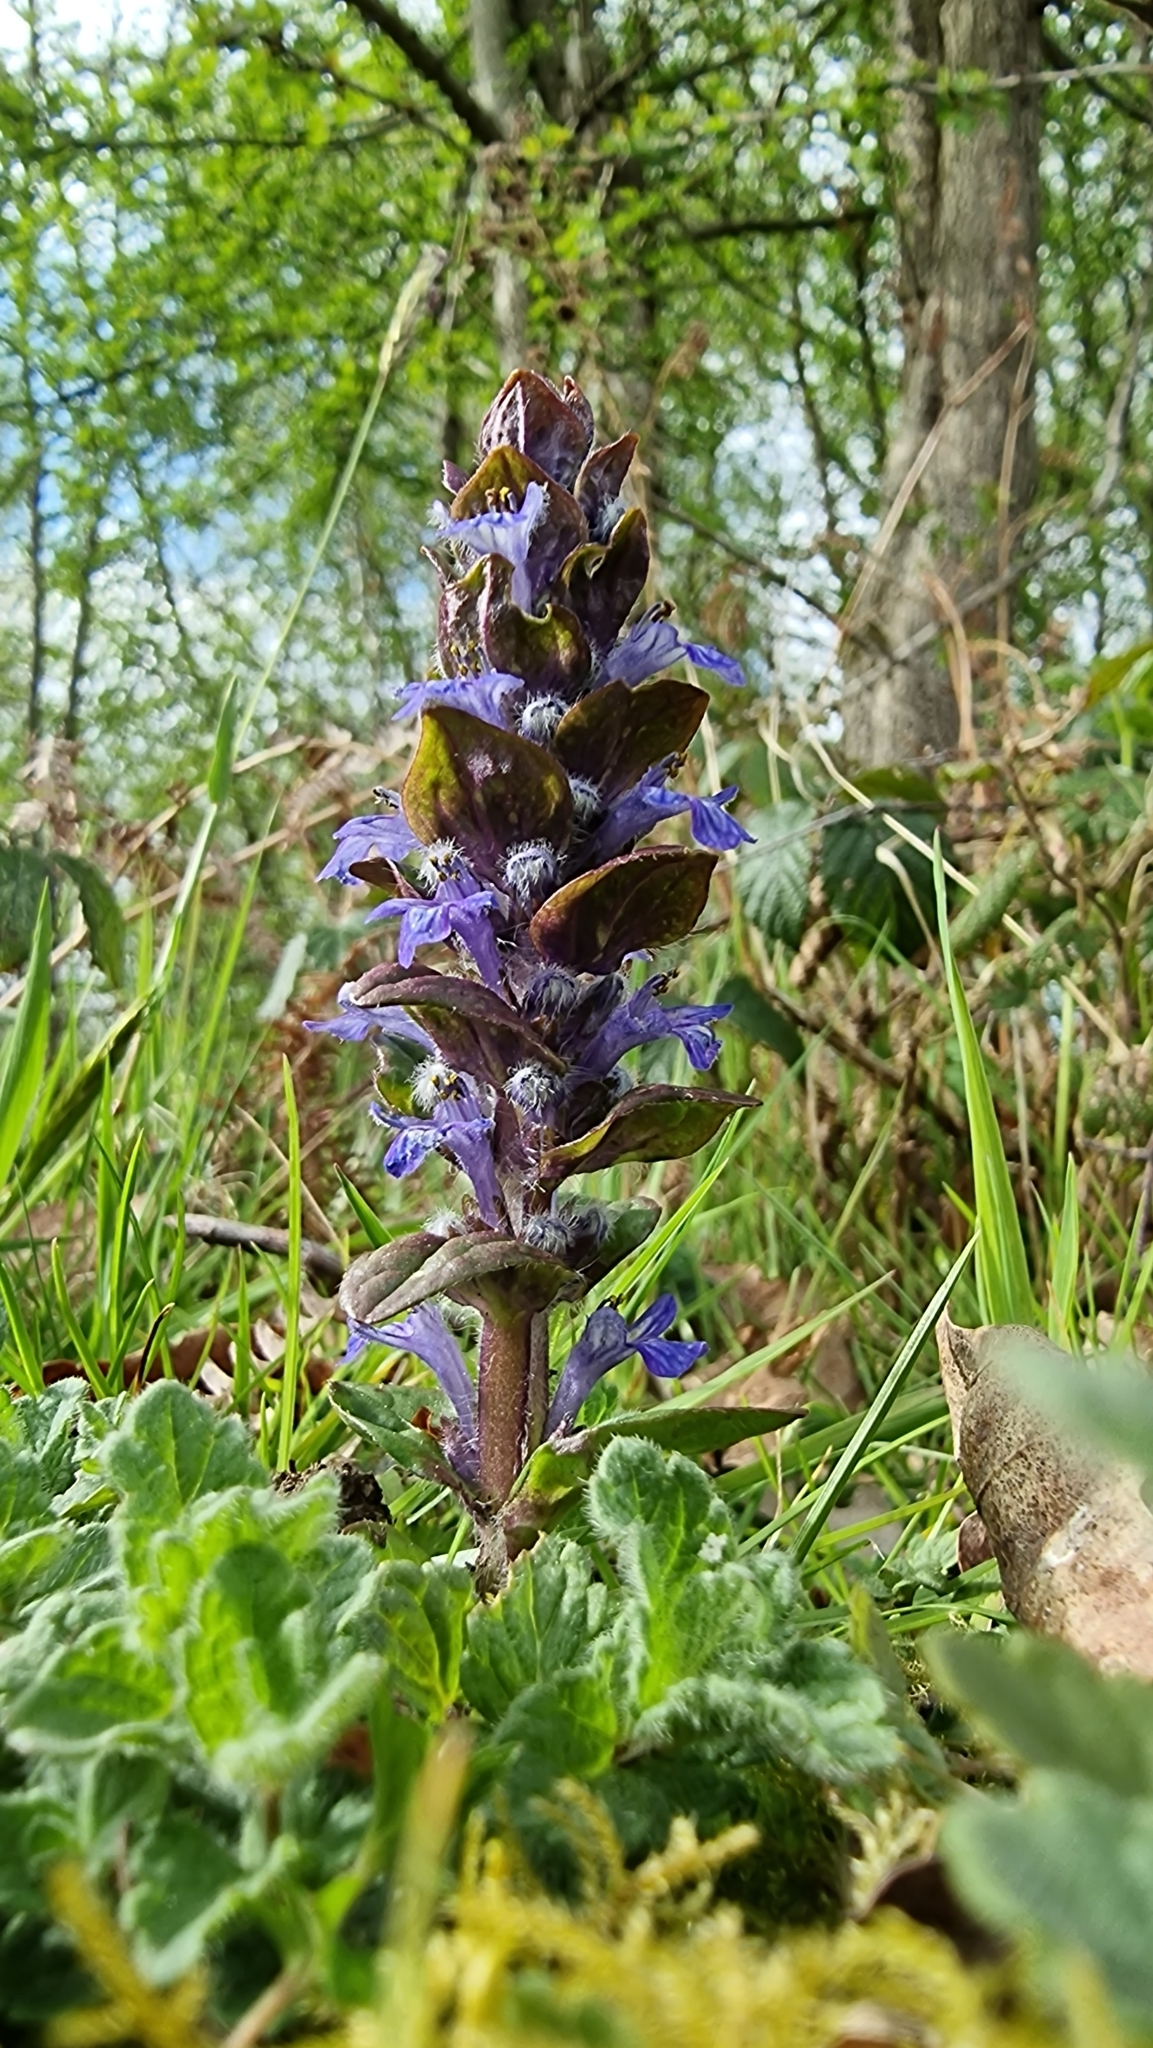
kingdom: Plantae
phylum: Tracheophyta
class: Magnoliopsida
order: Lamiales
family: Lamiaceae
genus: Ajuga
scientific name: Ajuga reptans
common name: Bugle
